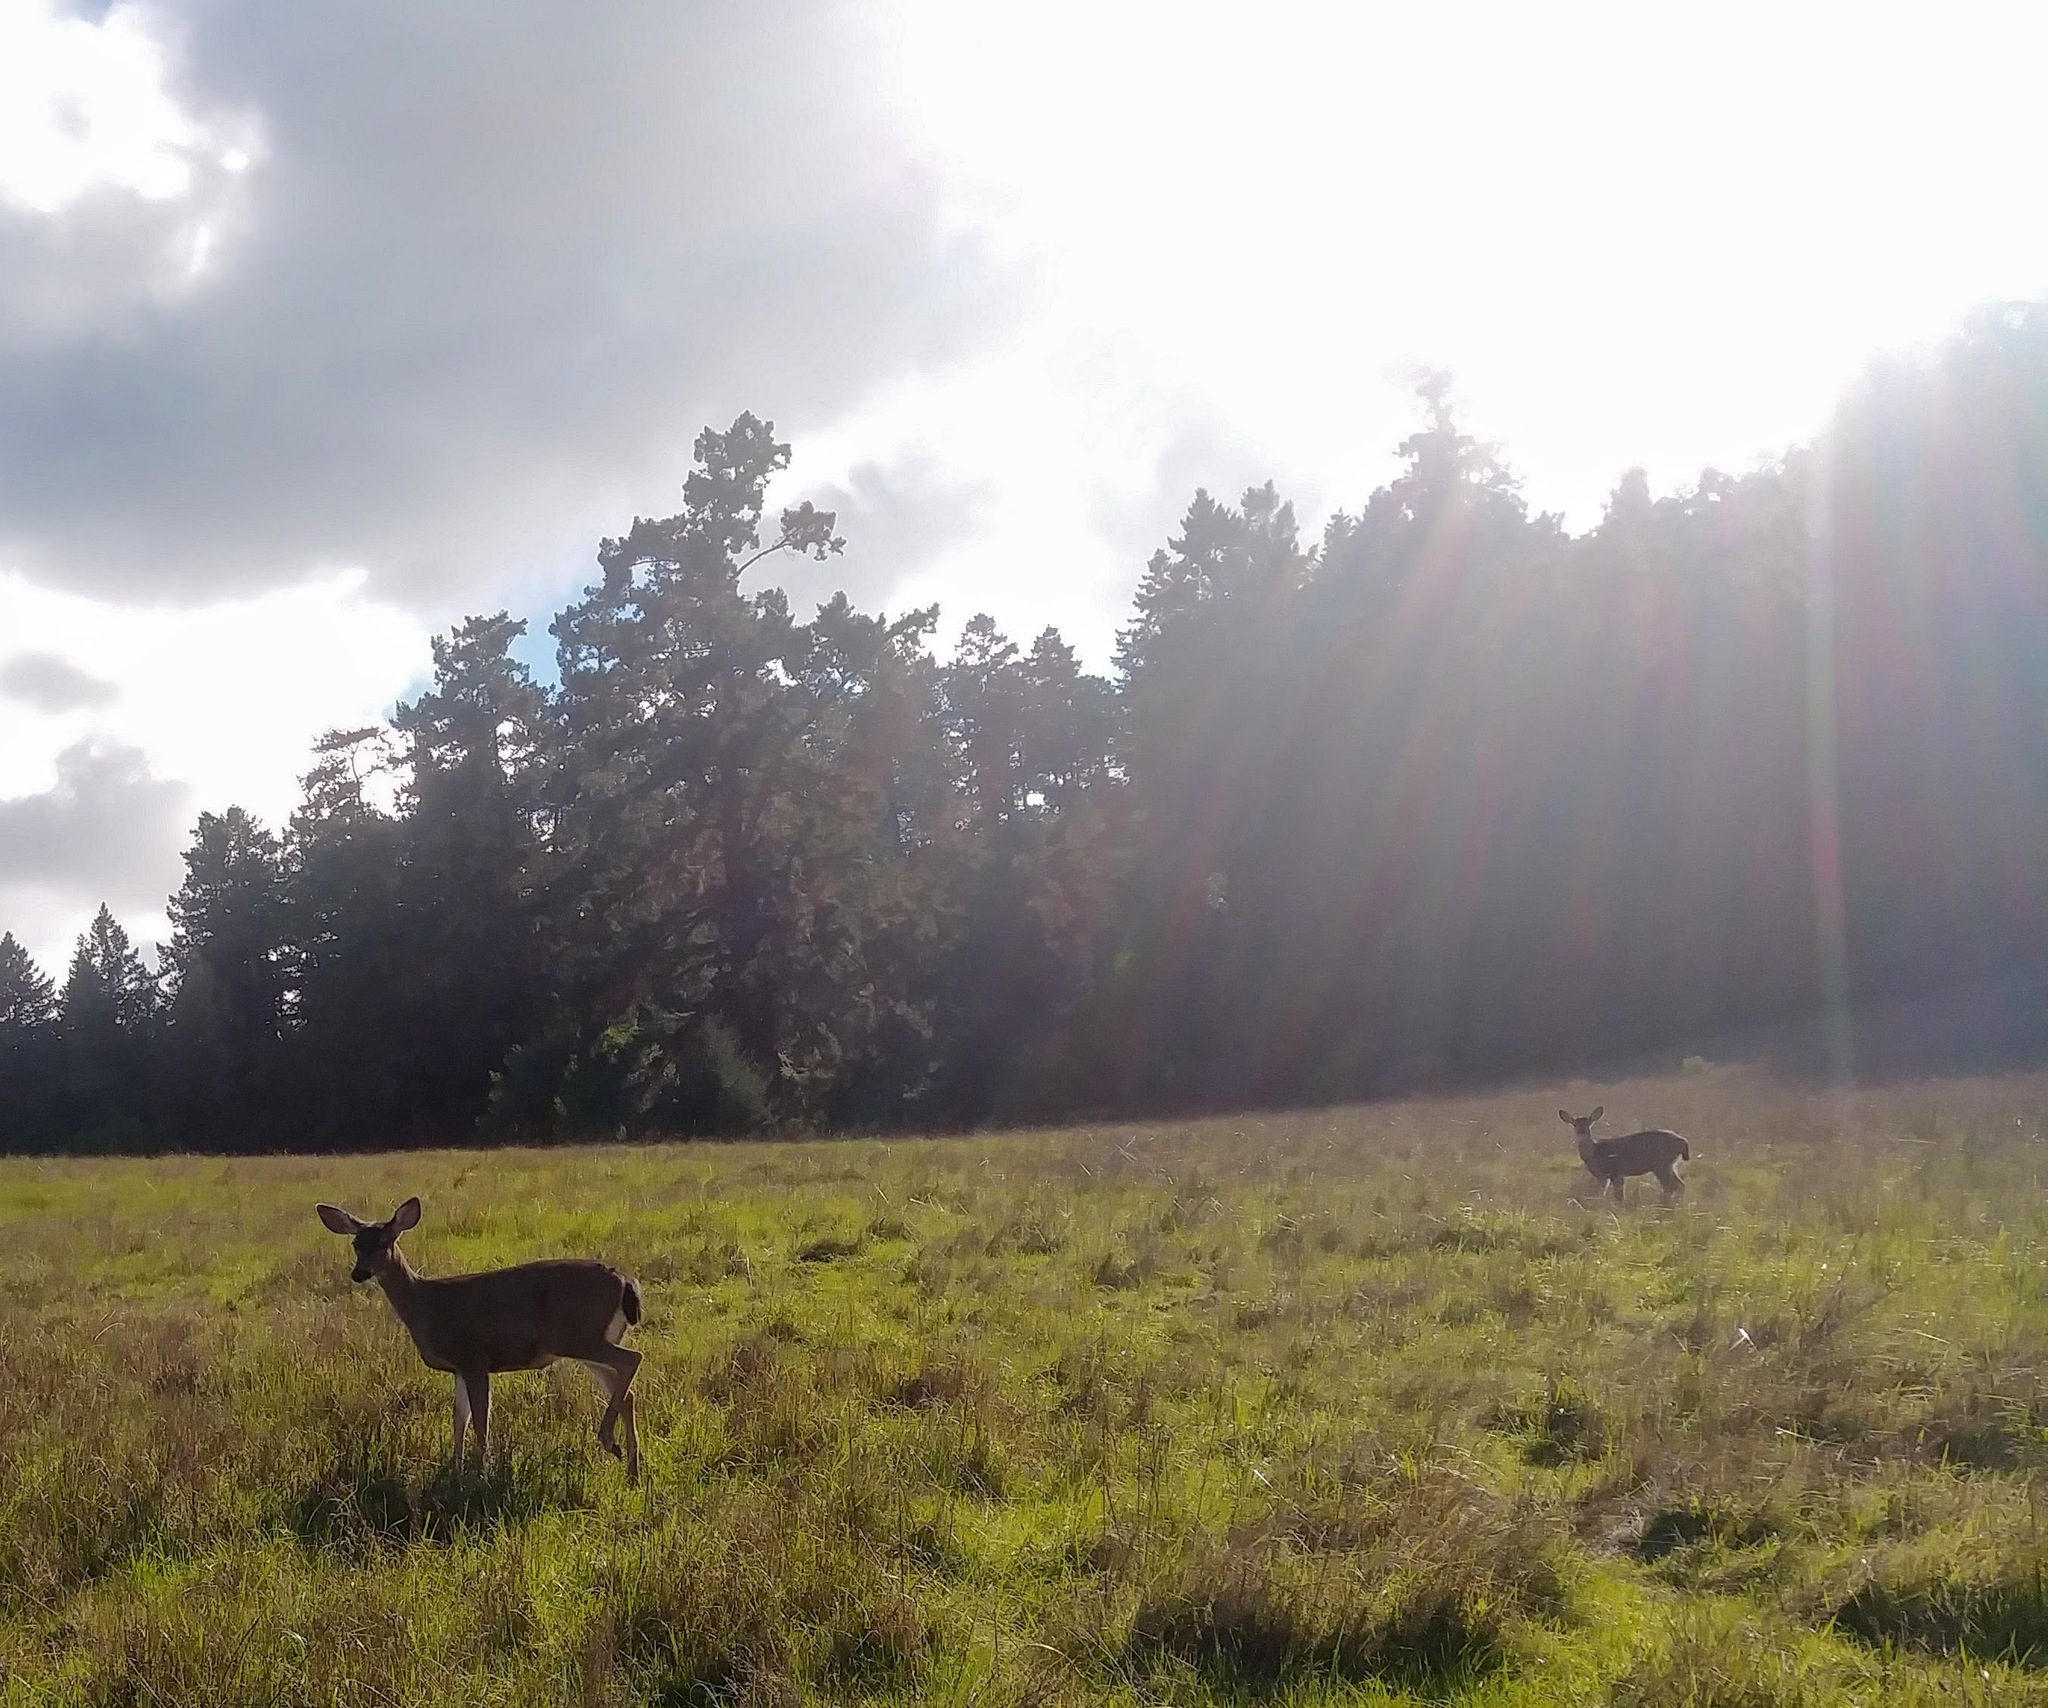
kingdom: Animalia
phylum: Chordata
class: Mammalia
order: Artiodactyla
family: Cervidae
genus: Odocoileus
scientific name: Odocoileus hemionus
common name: Mule deer
